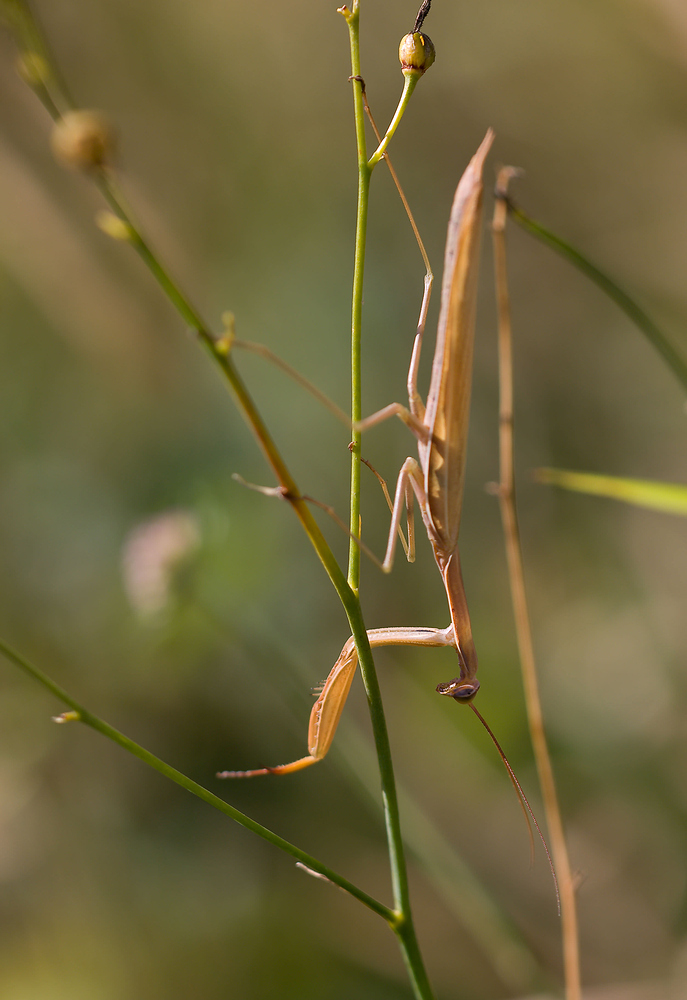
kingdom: Animalia
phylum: Arthropoda
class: Insecta
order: Mantodea
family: Mantidae
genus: Mantis
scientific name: Mantis religiosa
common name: Praying mantis
